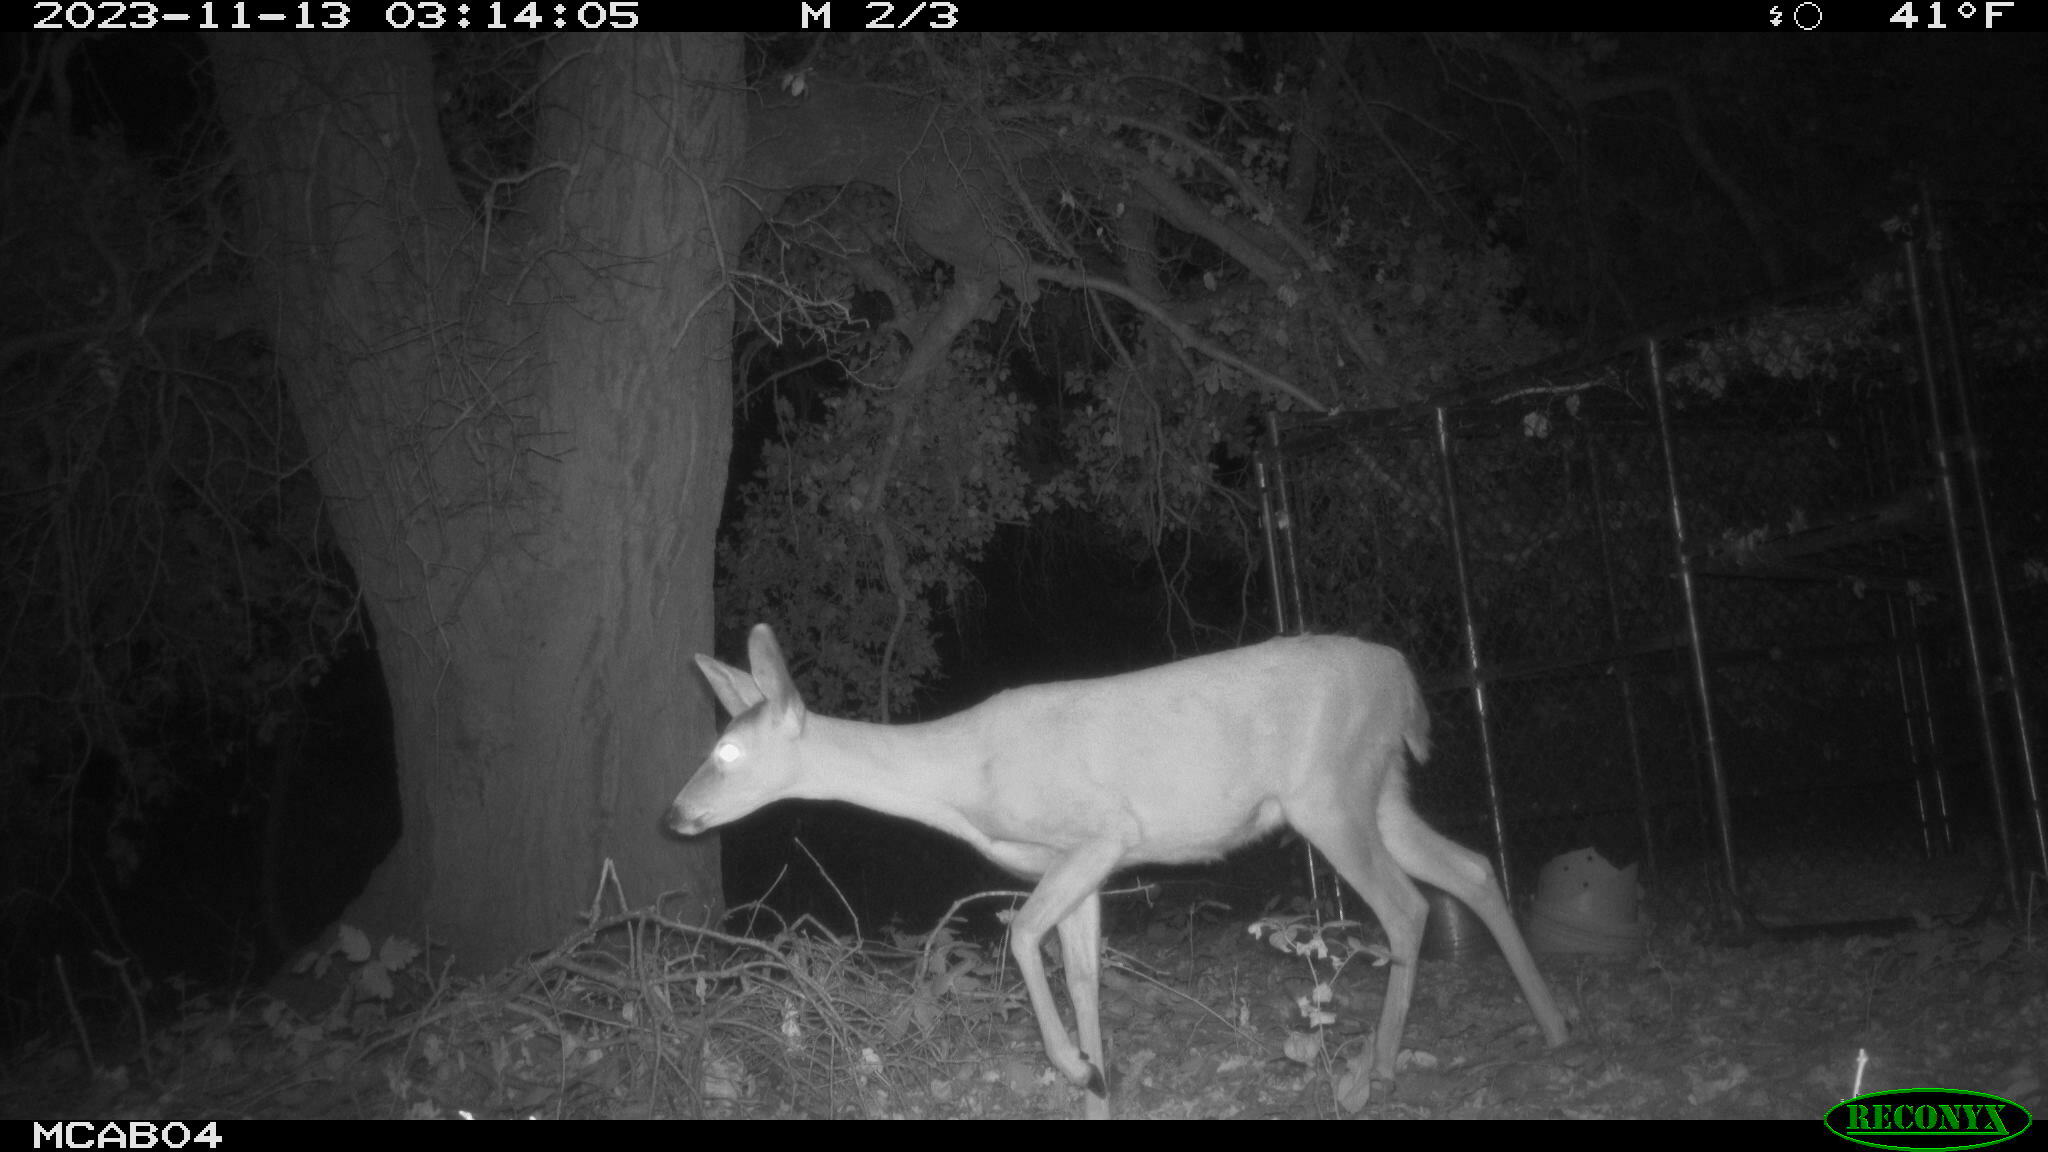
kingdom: Animalia
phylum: Chordata
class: Mammalia
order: Artiodactyla
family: Cervidae
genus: Odocoileus
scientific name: Odocoileus hemionus
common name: Mule deer
